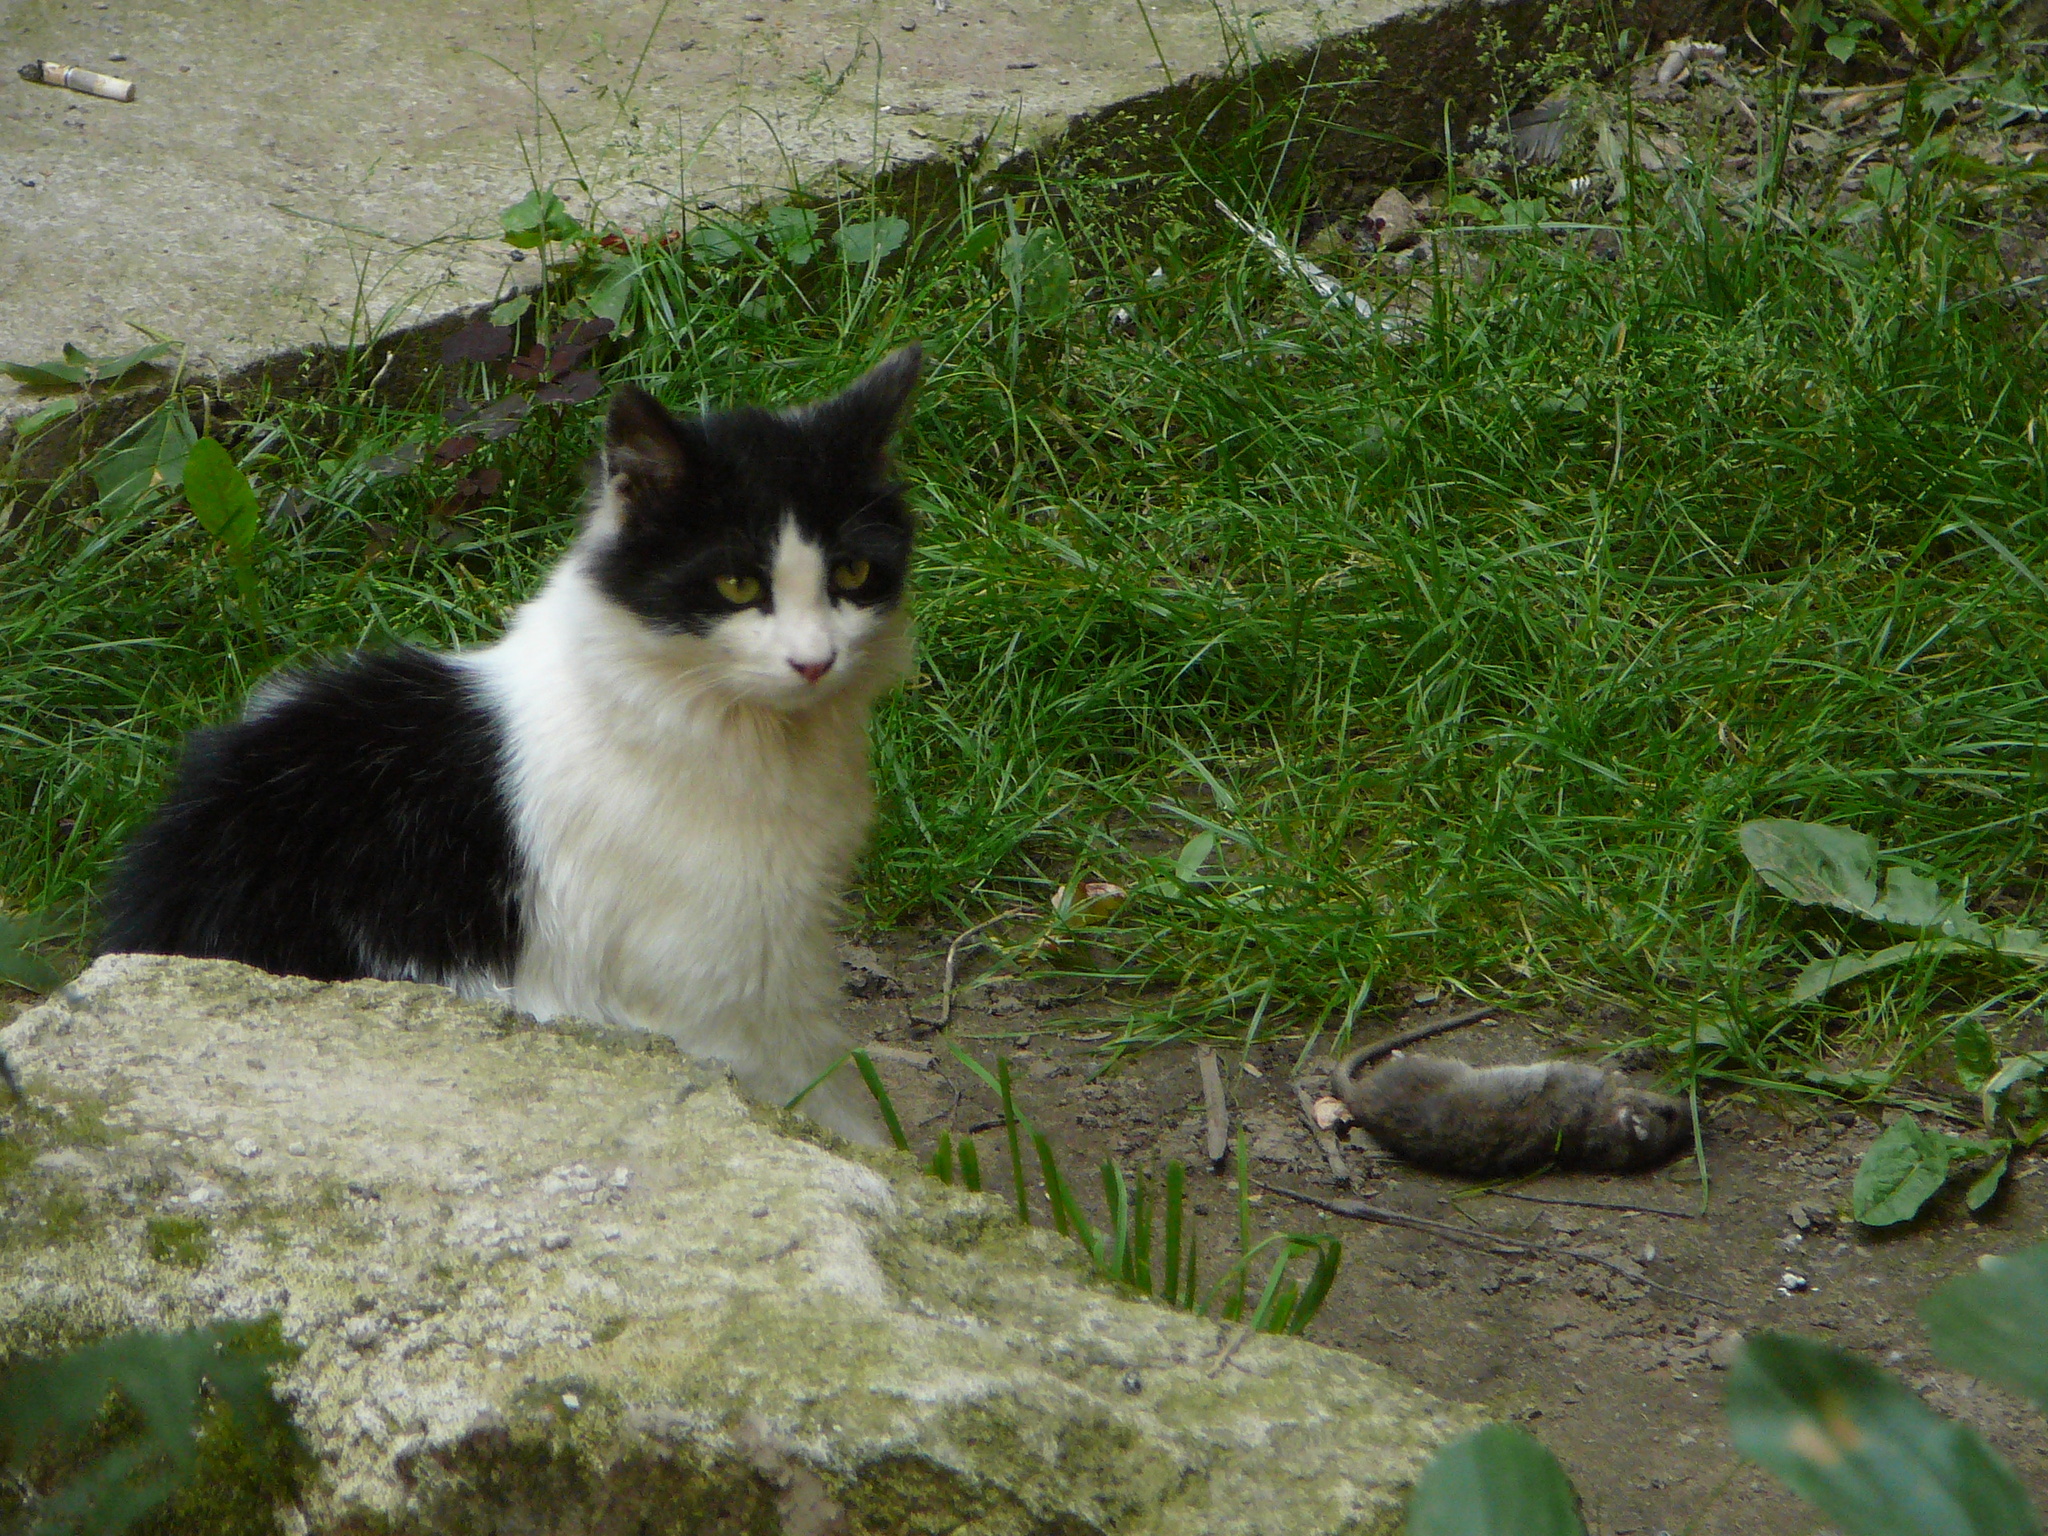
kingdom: Animalia
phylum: Chordata
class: Mammalia
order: Rodentia
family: Muridae
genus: Rattus
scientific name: Rattus norvegicus
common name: Brown rat
